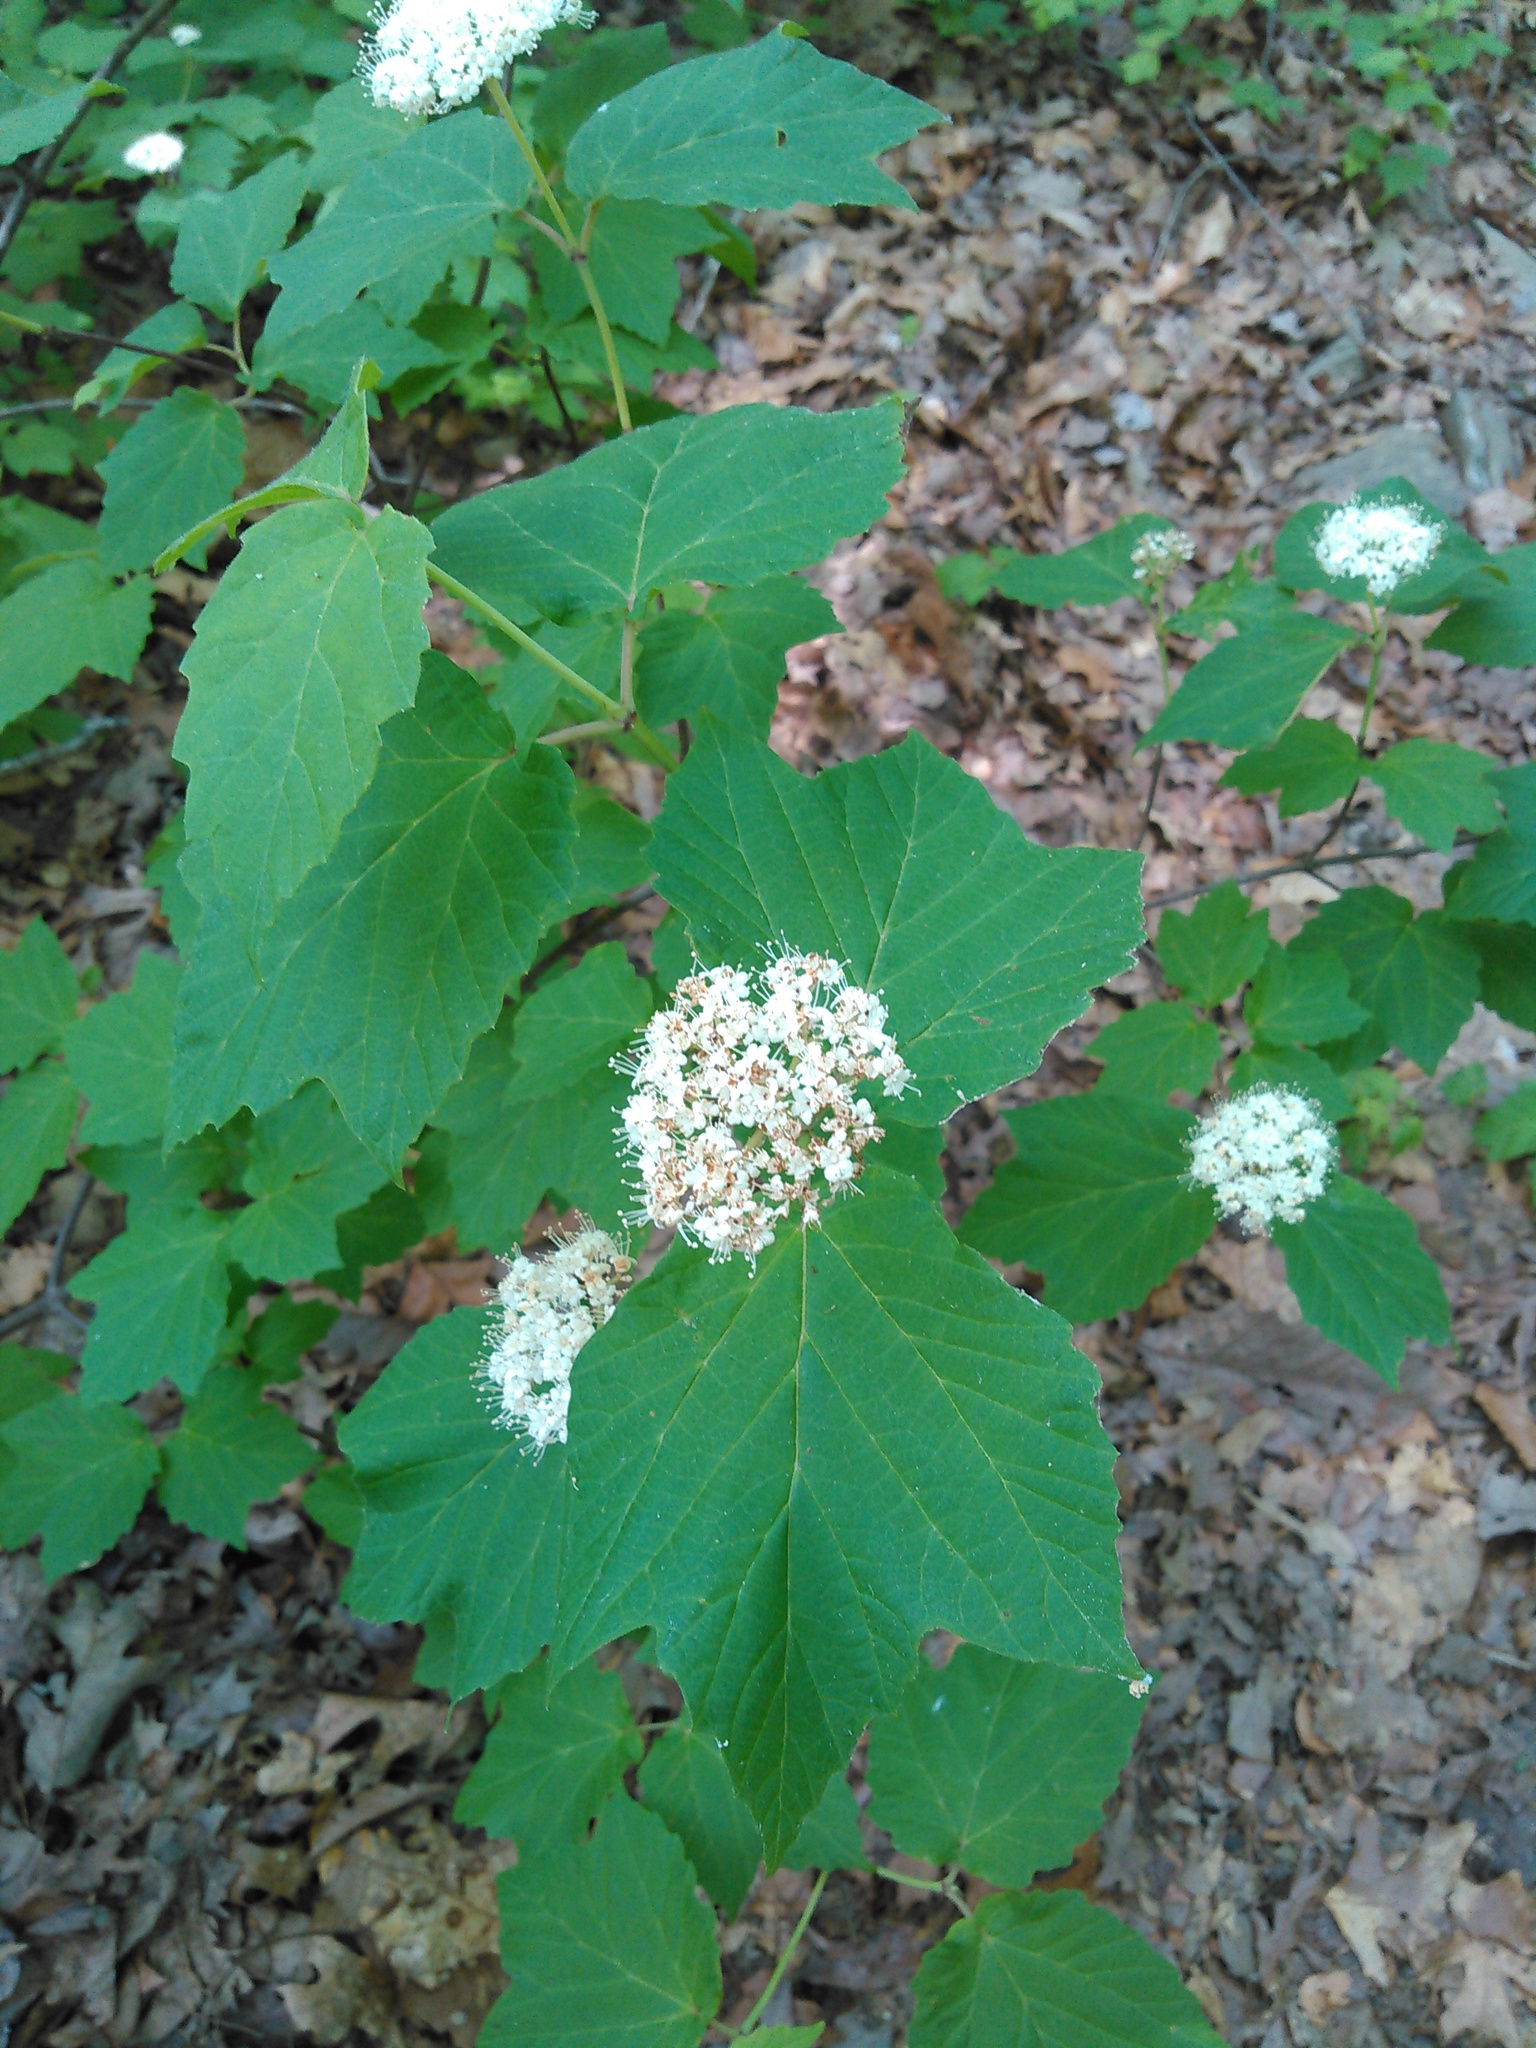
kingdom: Plantae
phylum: Tracheophyta
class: Magnoliopsida
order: Dipsacales
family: Viburnaceae
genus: Viburnum
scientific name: Viburnum acerifolium
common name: Dockmackie
